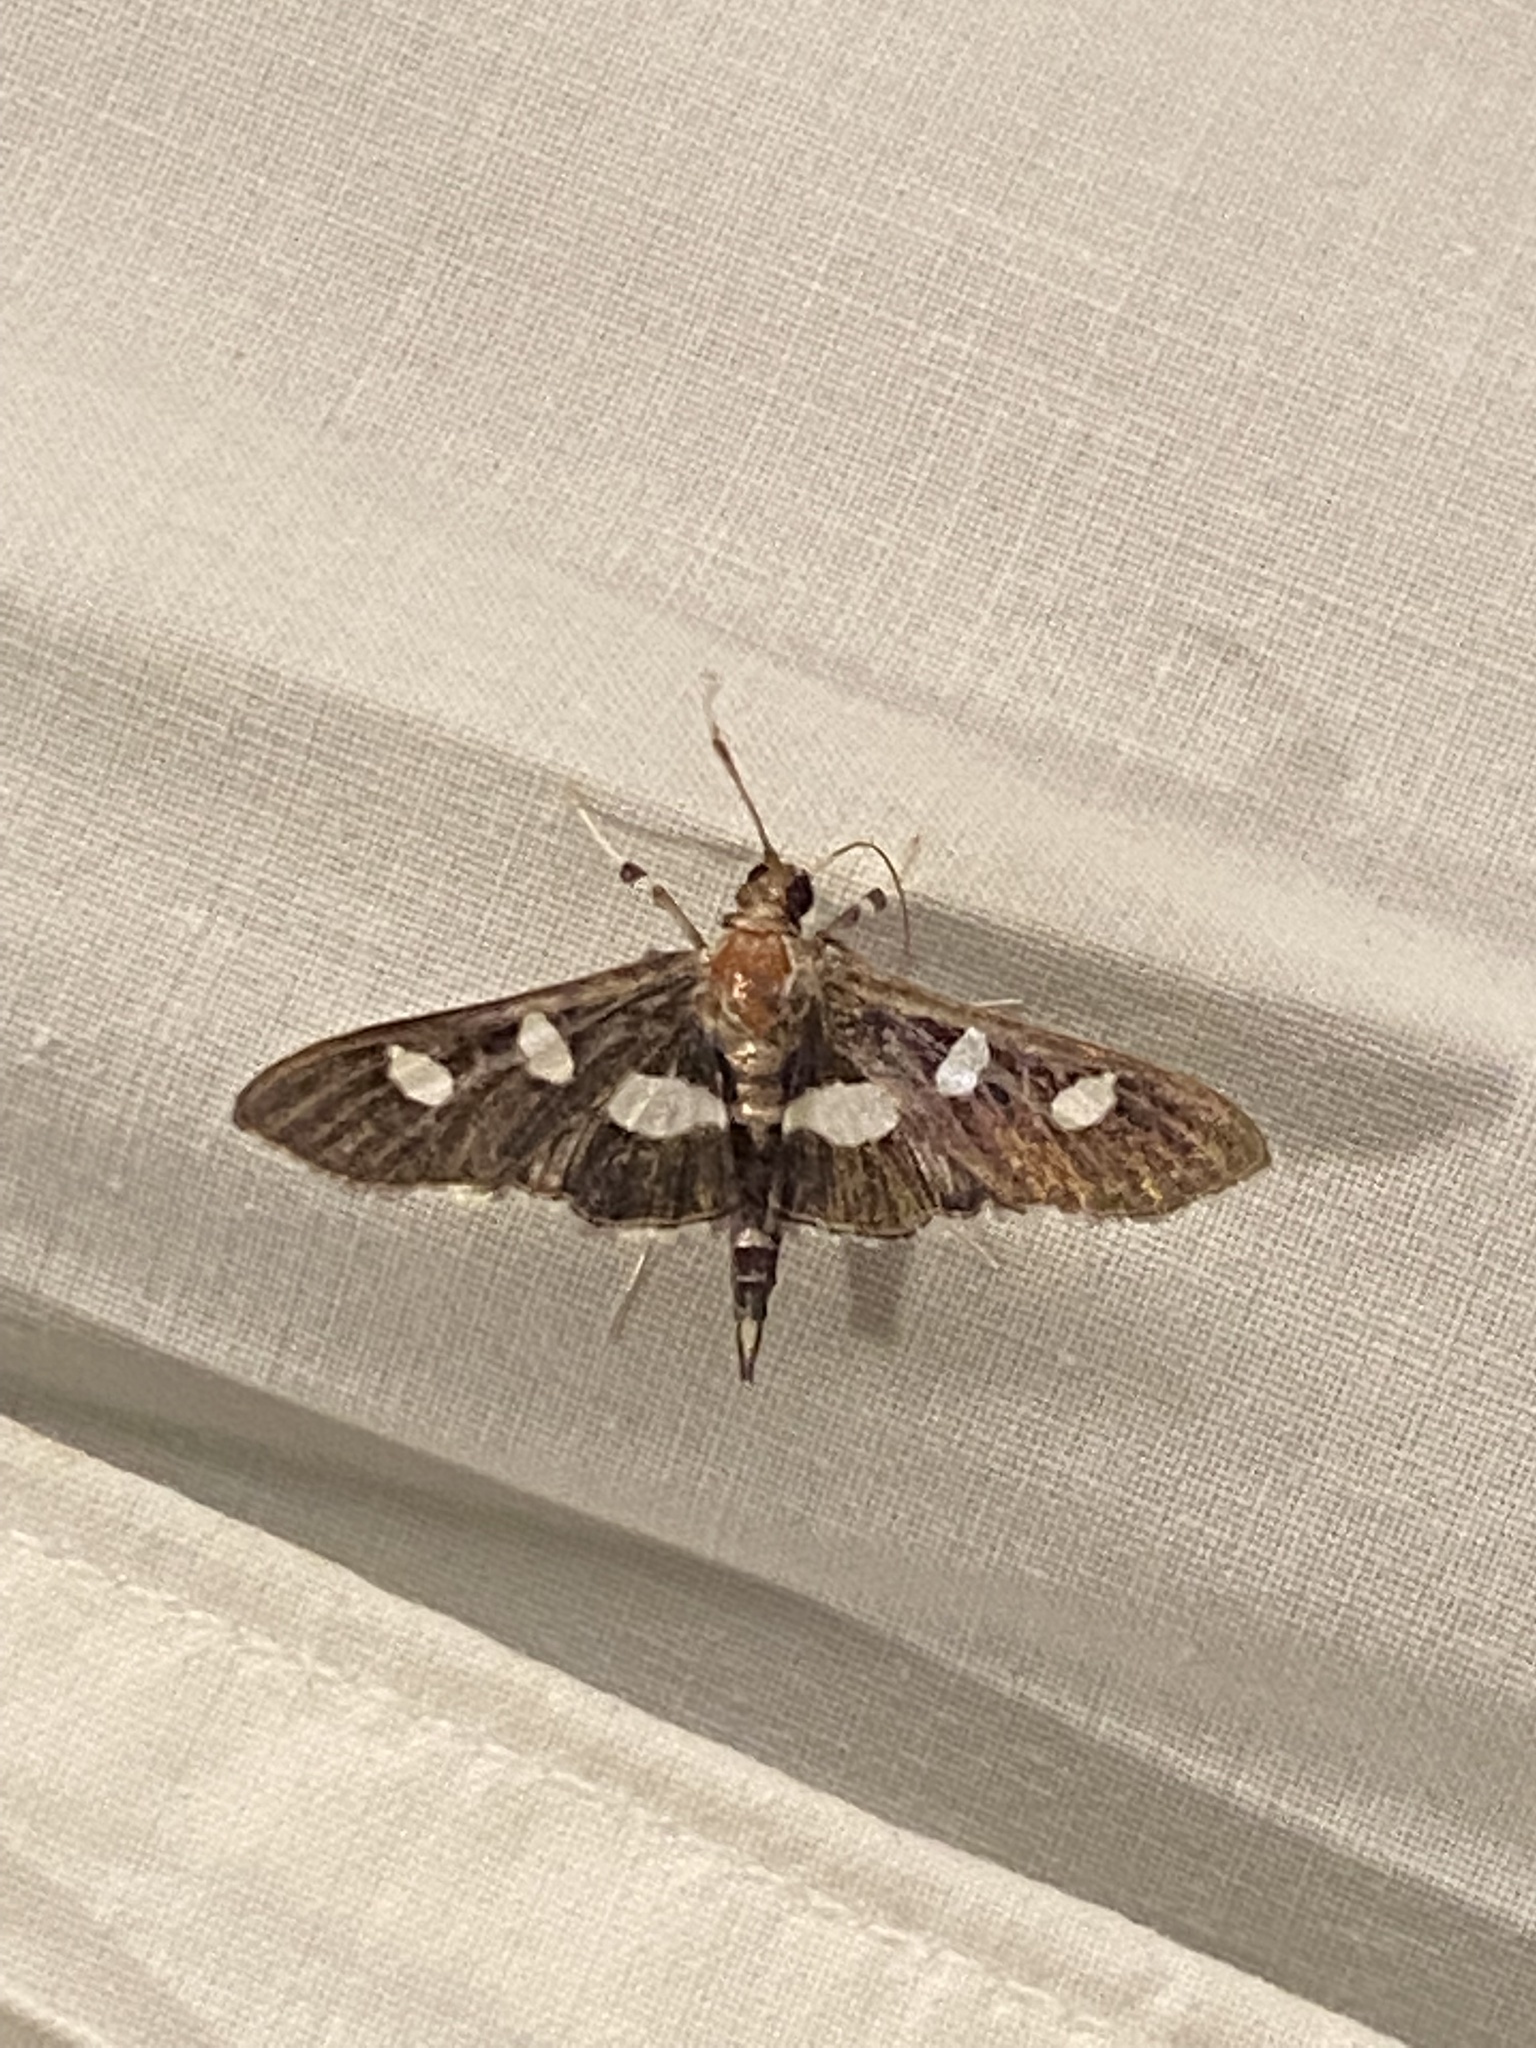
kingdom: Animalia
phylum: Arthropoda
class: Insecta
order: Lepidoptera
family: Crambidae
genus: Desmia
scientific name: Desmia
